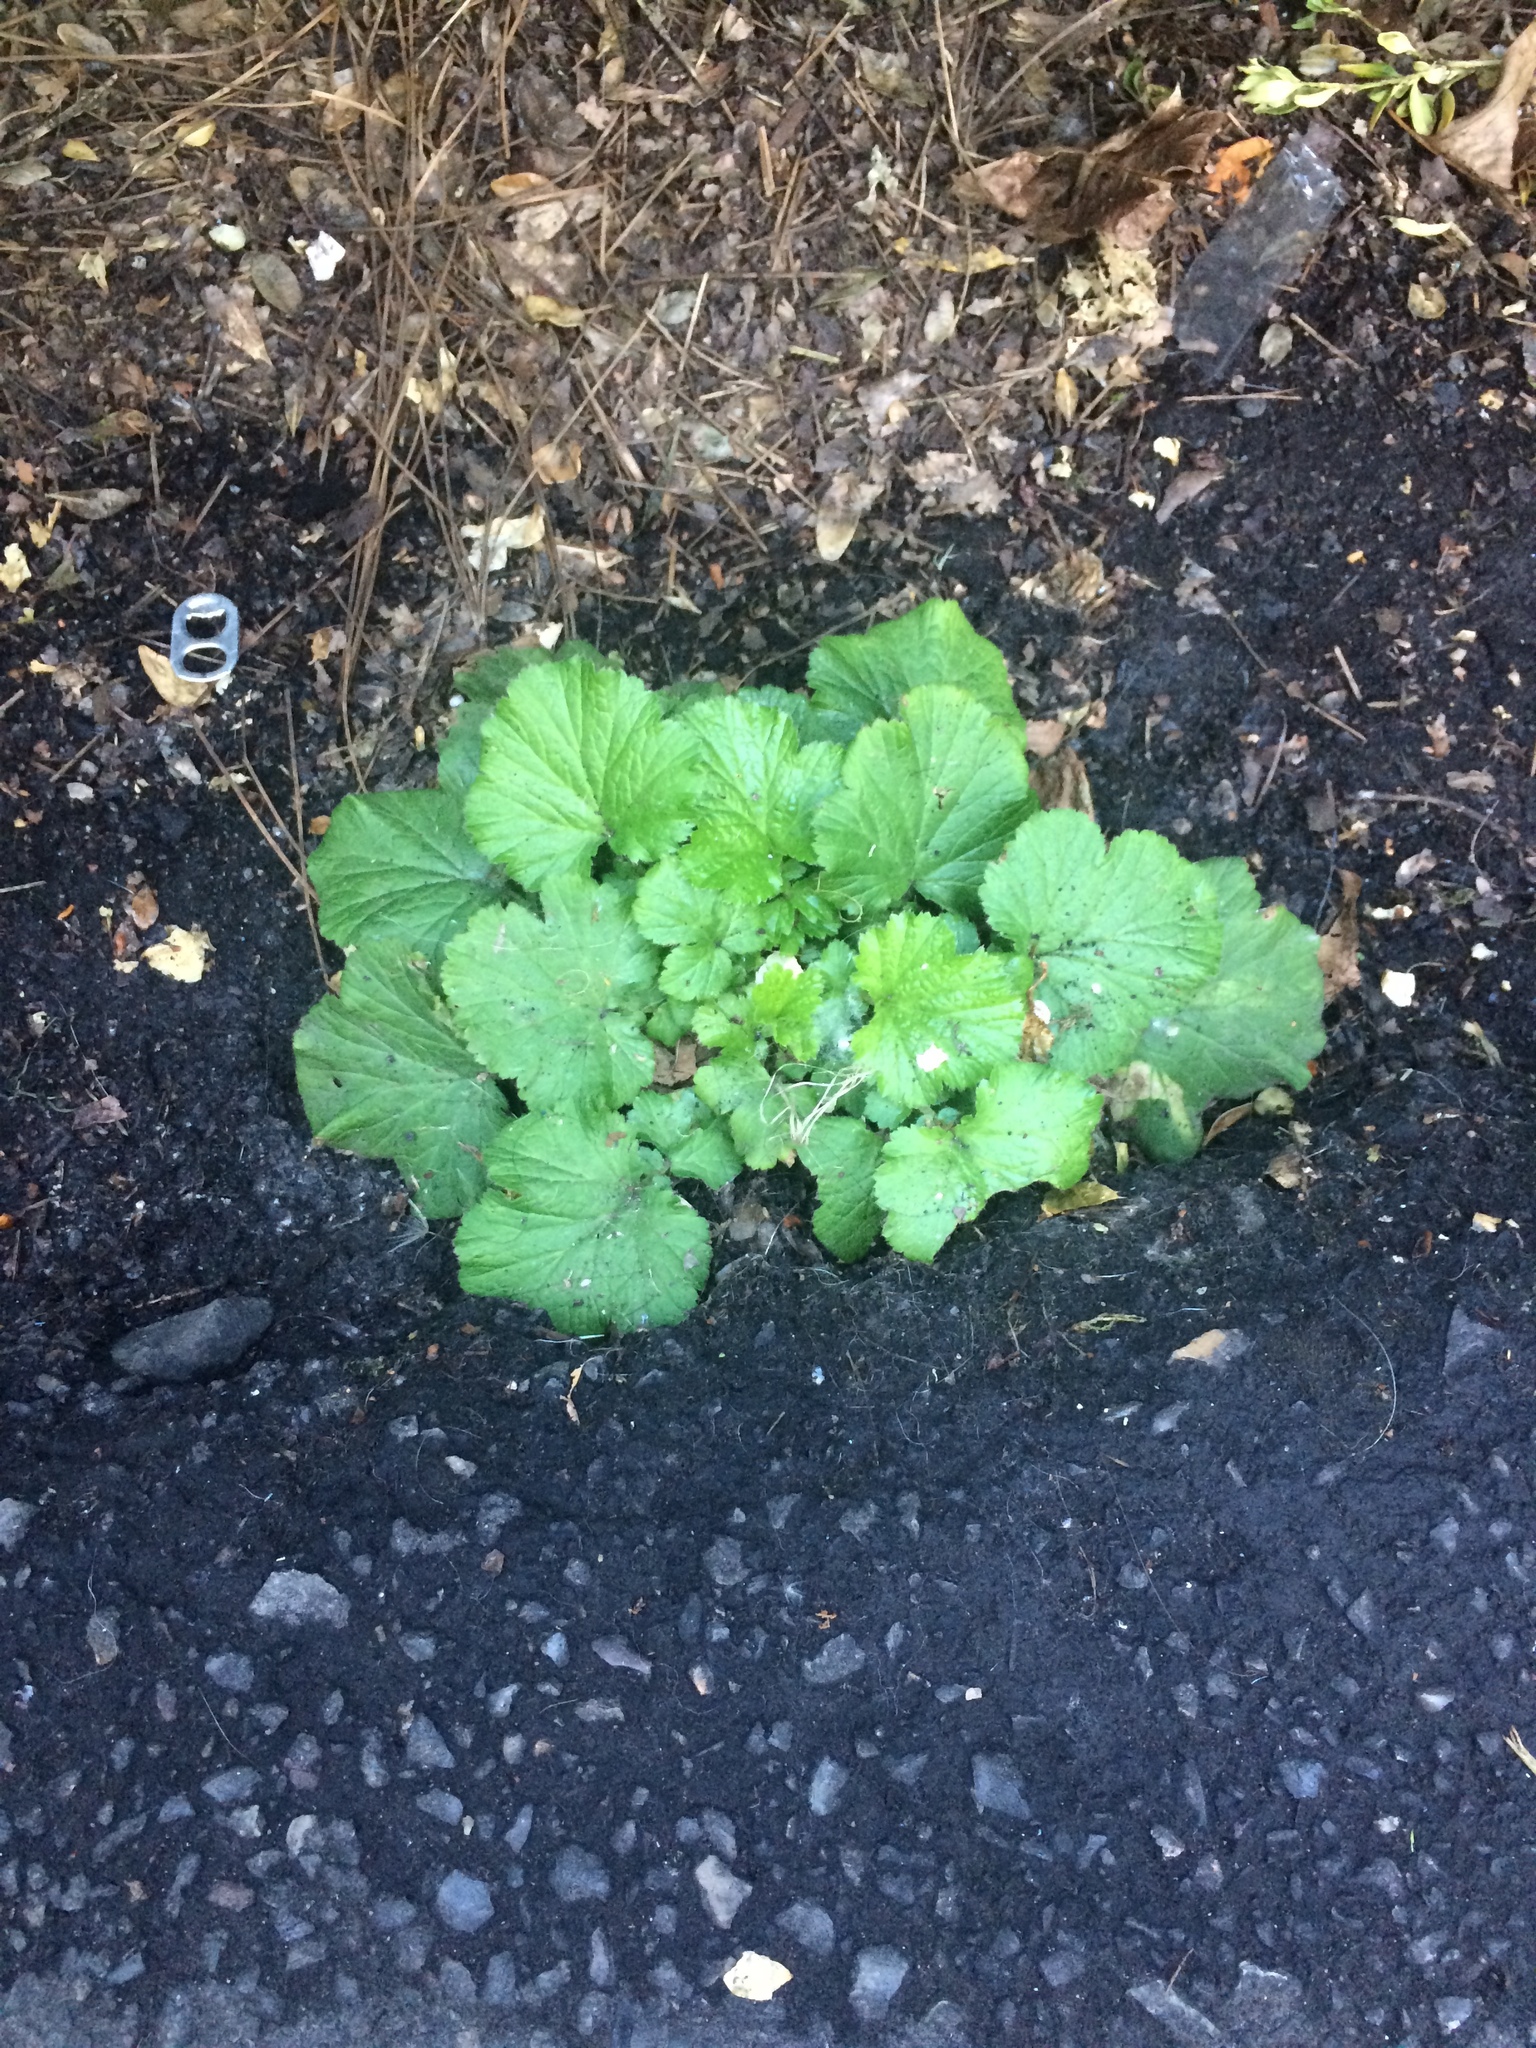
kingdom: Plantae
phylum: Tracheophyta
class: Magnoliopsida
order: Rosales
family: Rosaceae
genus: Geum
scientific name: Geum macrophyllum
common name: Large-leaved avens
